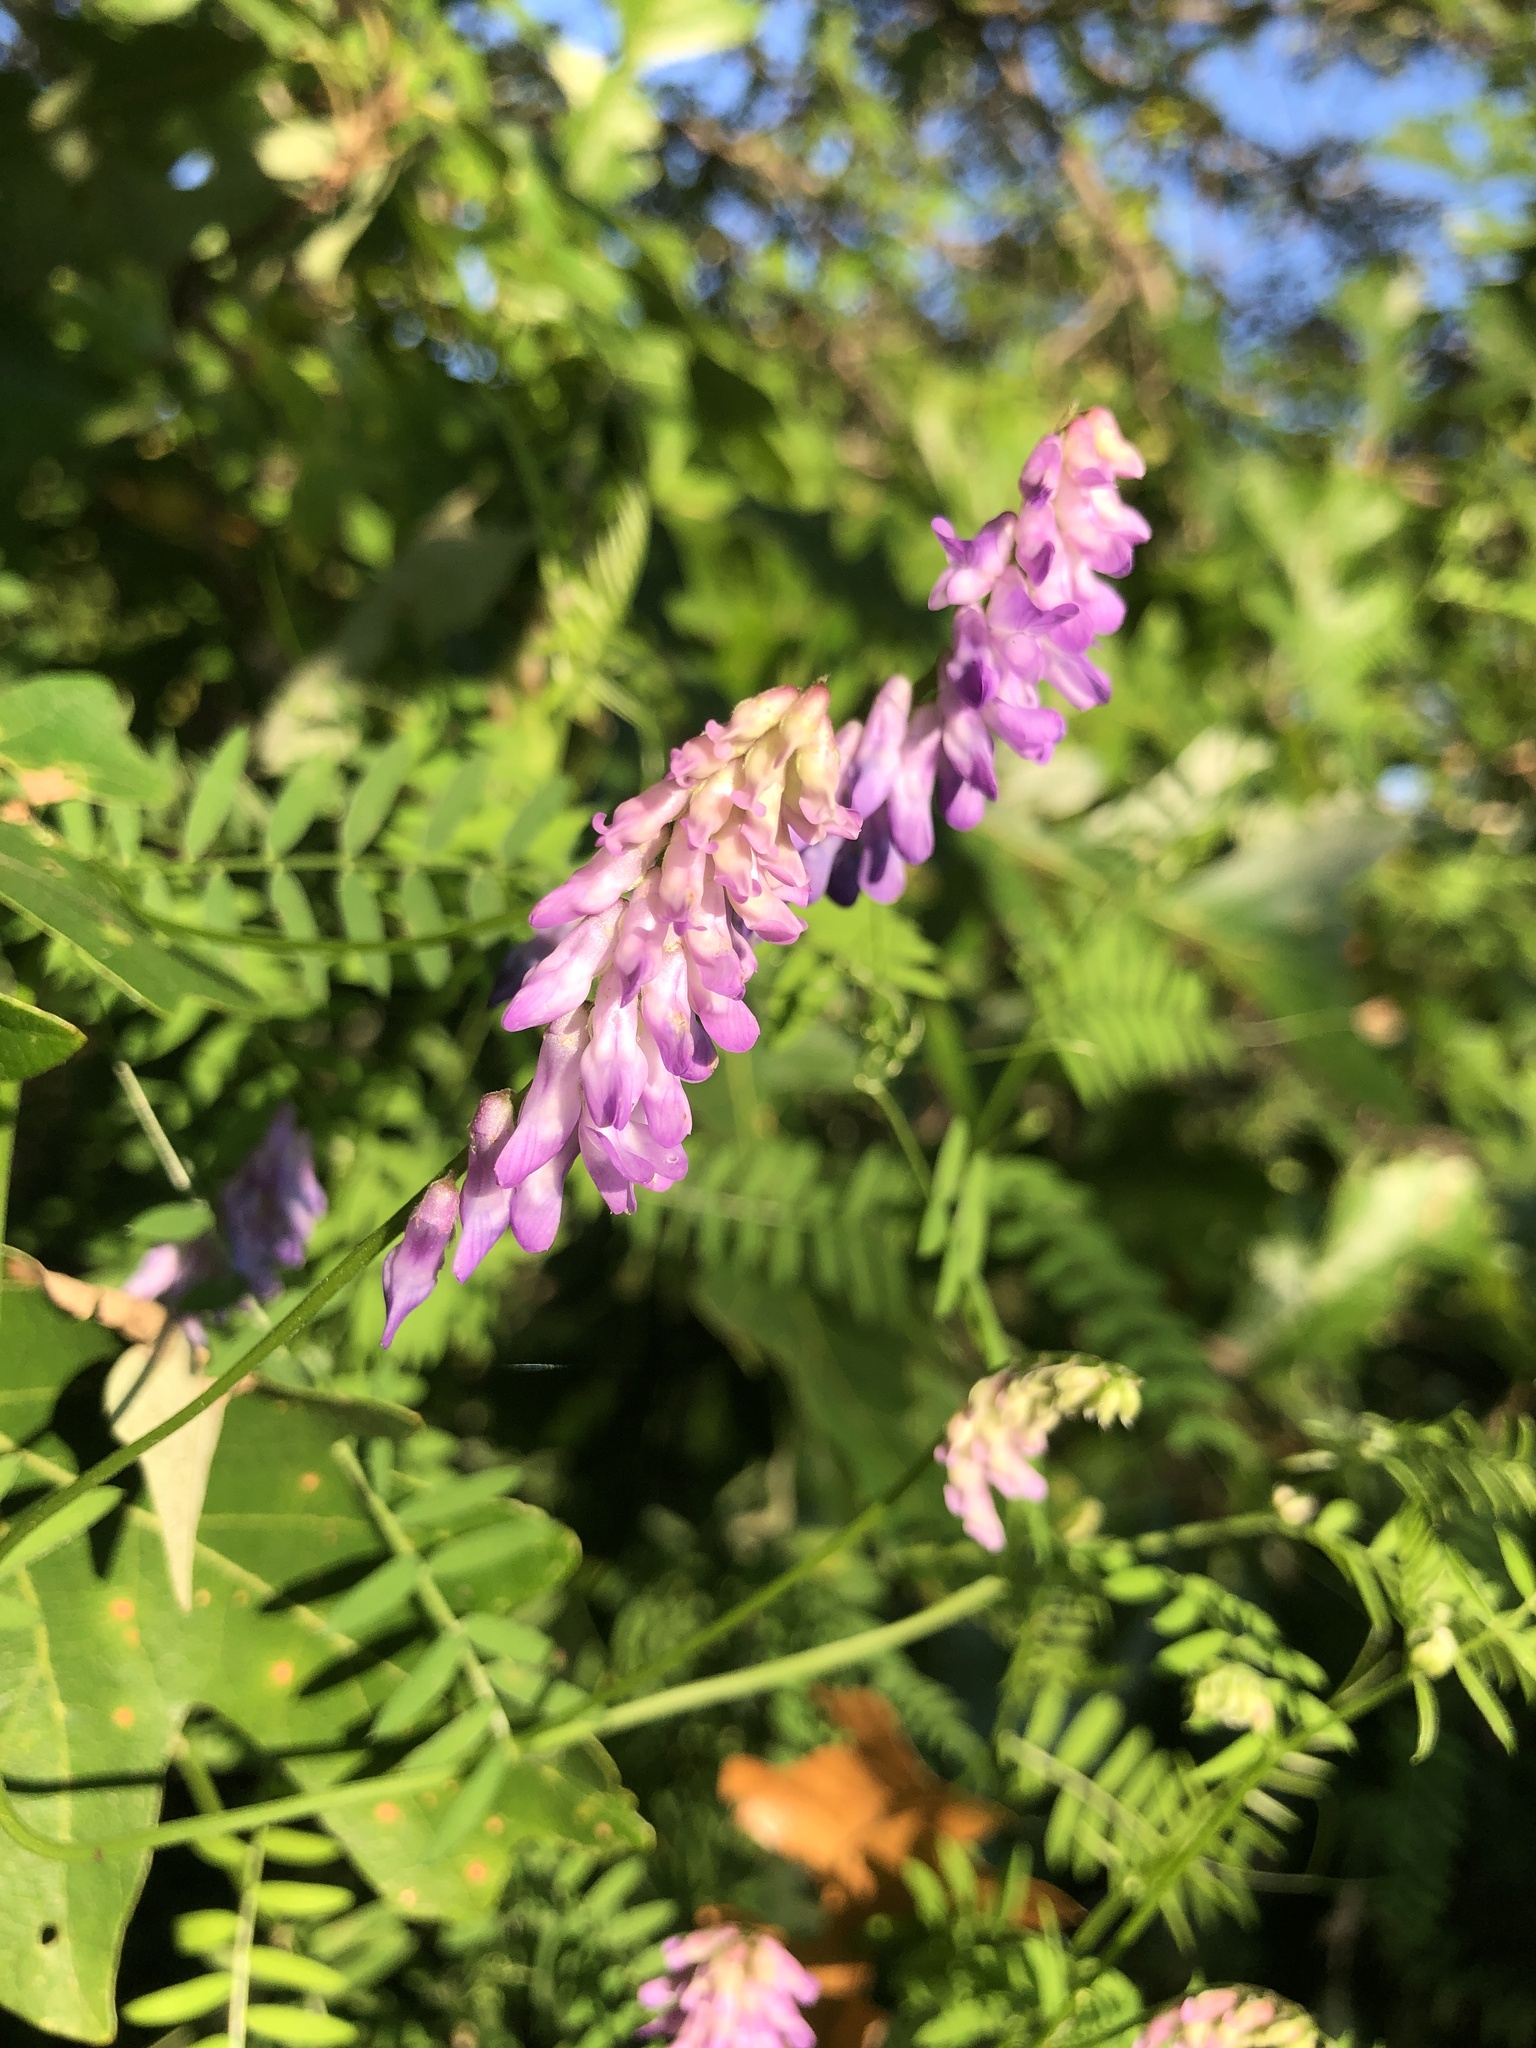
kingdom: Plantae
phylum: Tracheophyta
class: Magnoliopsida
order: Fabales
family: Fabaceae
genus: Vicia
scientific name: Vicia cracca
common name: Bird vetch
